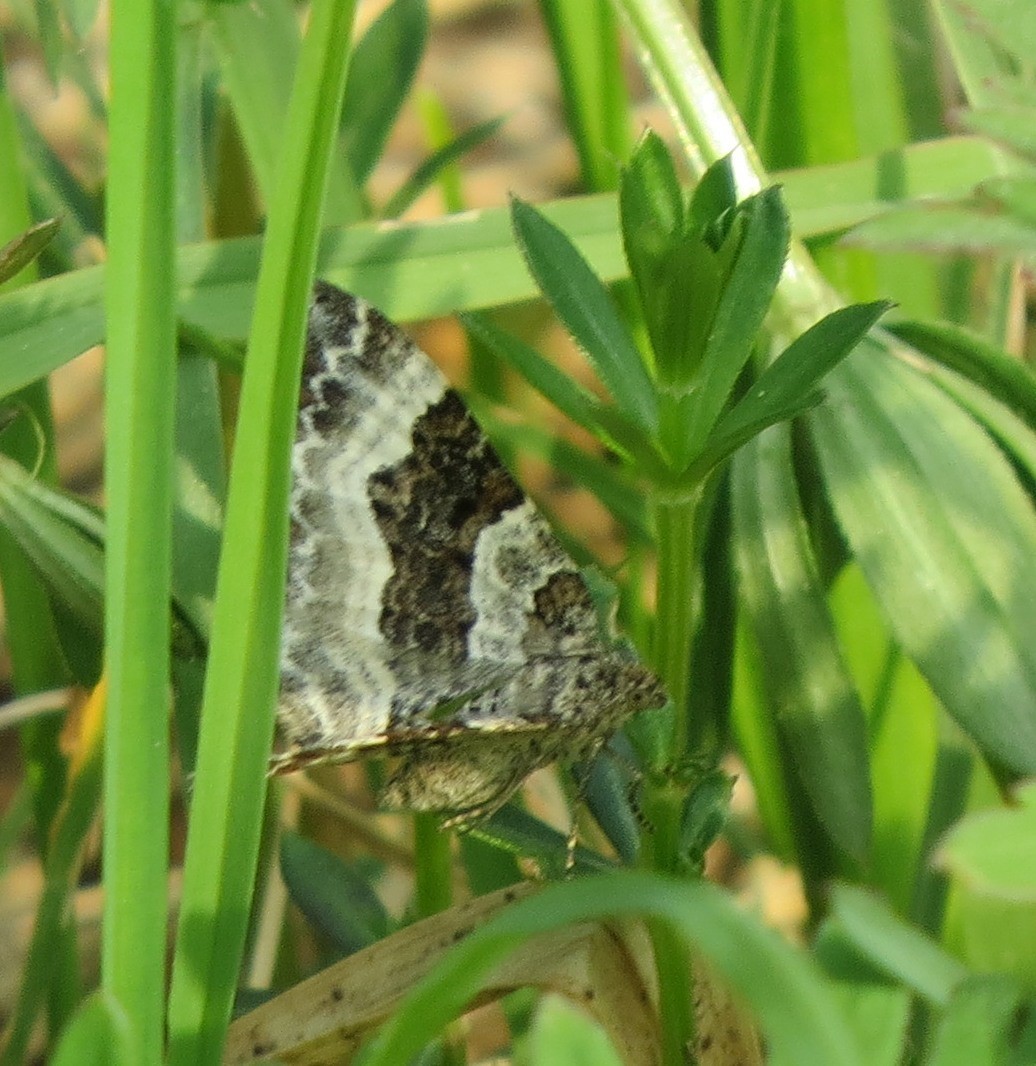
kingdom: Animalia
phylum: Arthropoda
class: Insecta
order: Lepidoptera
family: Geometridae
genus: Epirrhoe
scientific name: Epirrhoe alternata
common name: Common carpet
